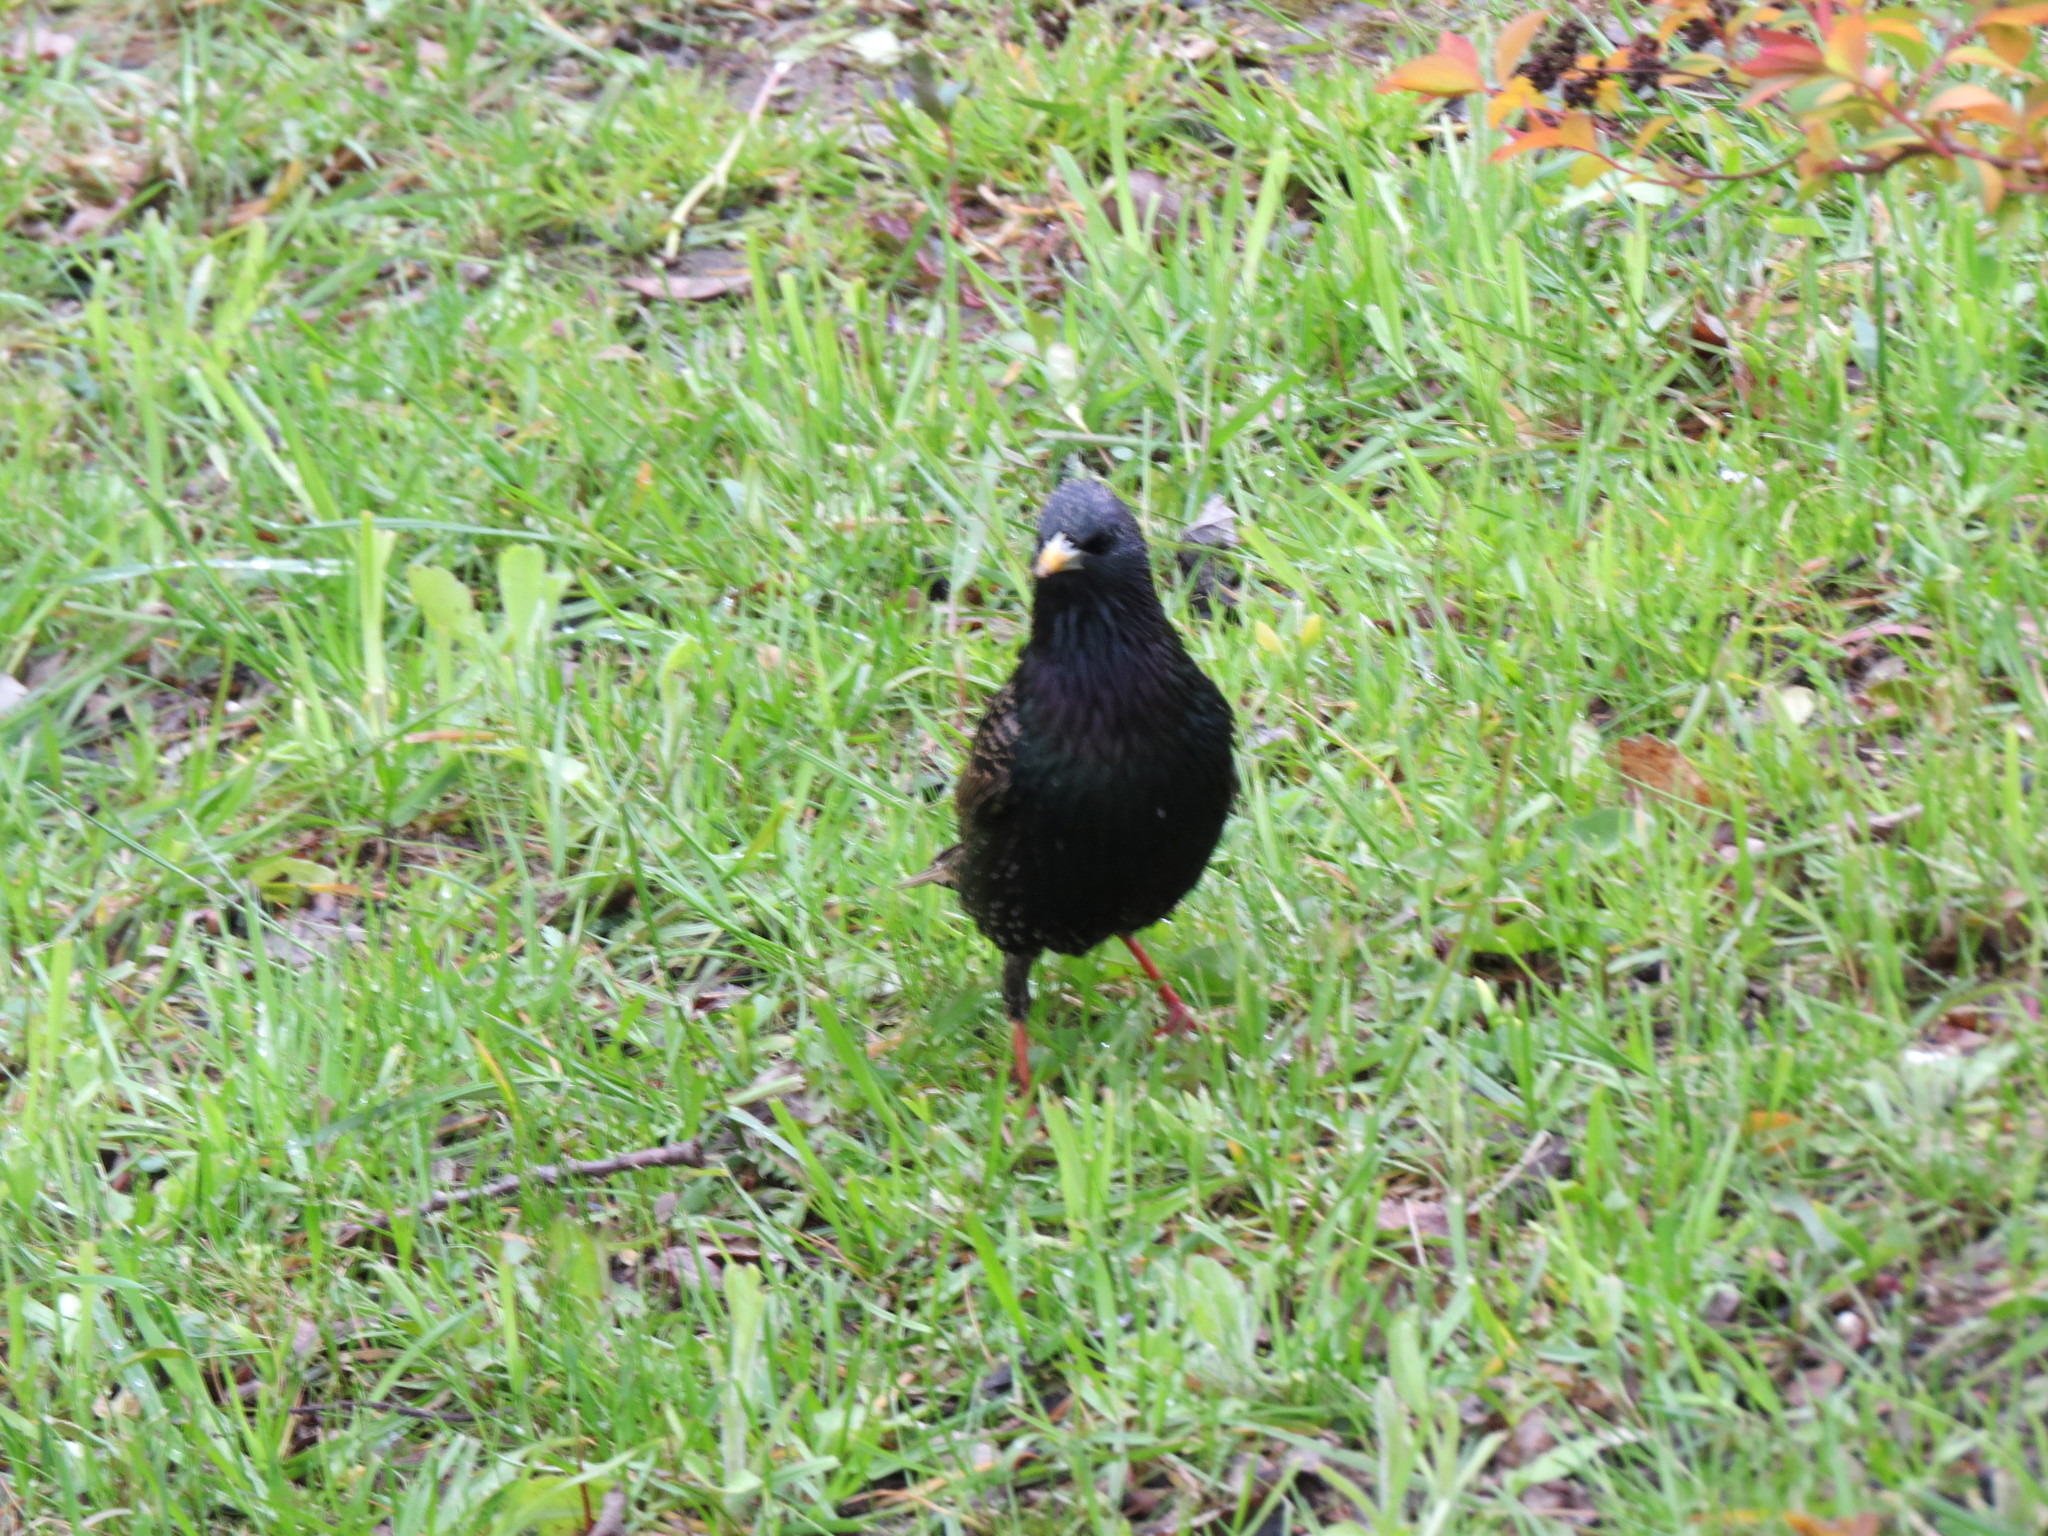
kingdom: Animalia
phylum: Chordata
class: Aves
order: Passeriformes
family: Sturnidae
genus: Sturnus
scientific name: Sturnus vulgaris
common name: Common starling
